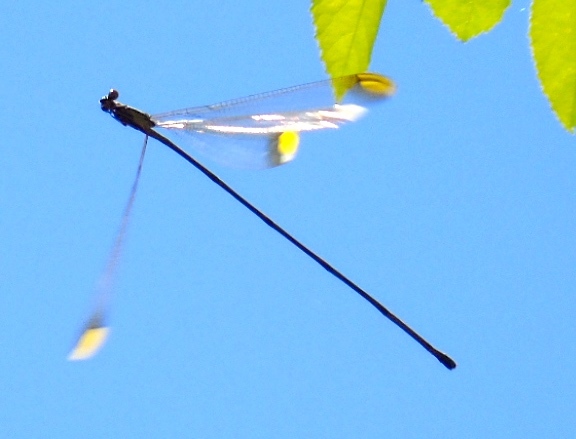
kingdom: Animalia
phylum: Arthropoda
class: Insecta
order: Odonata
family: Coenagrionidae
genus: Mecistogaster
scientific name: Mecistogaster ornata
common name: Ornate helicopter
